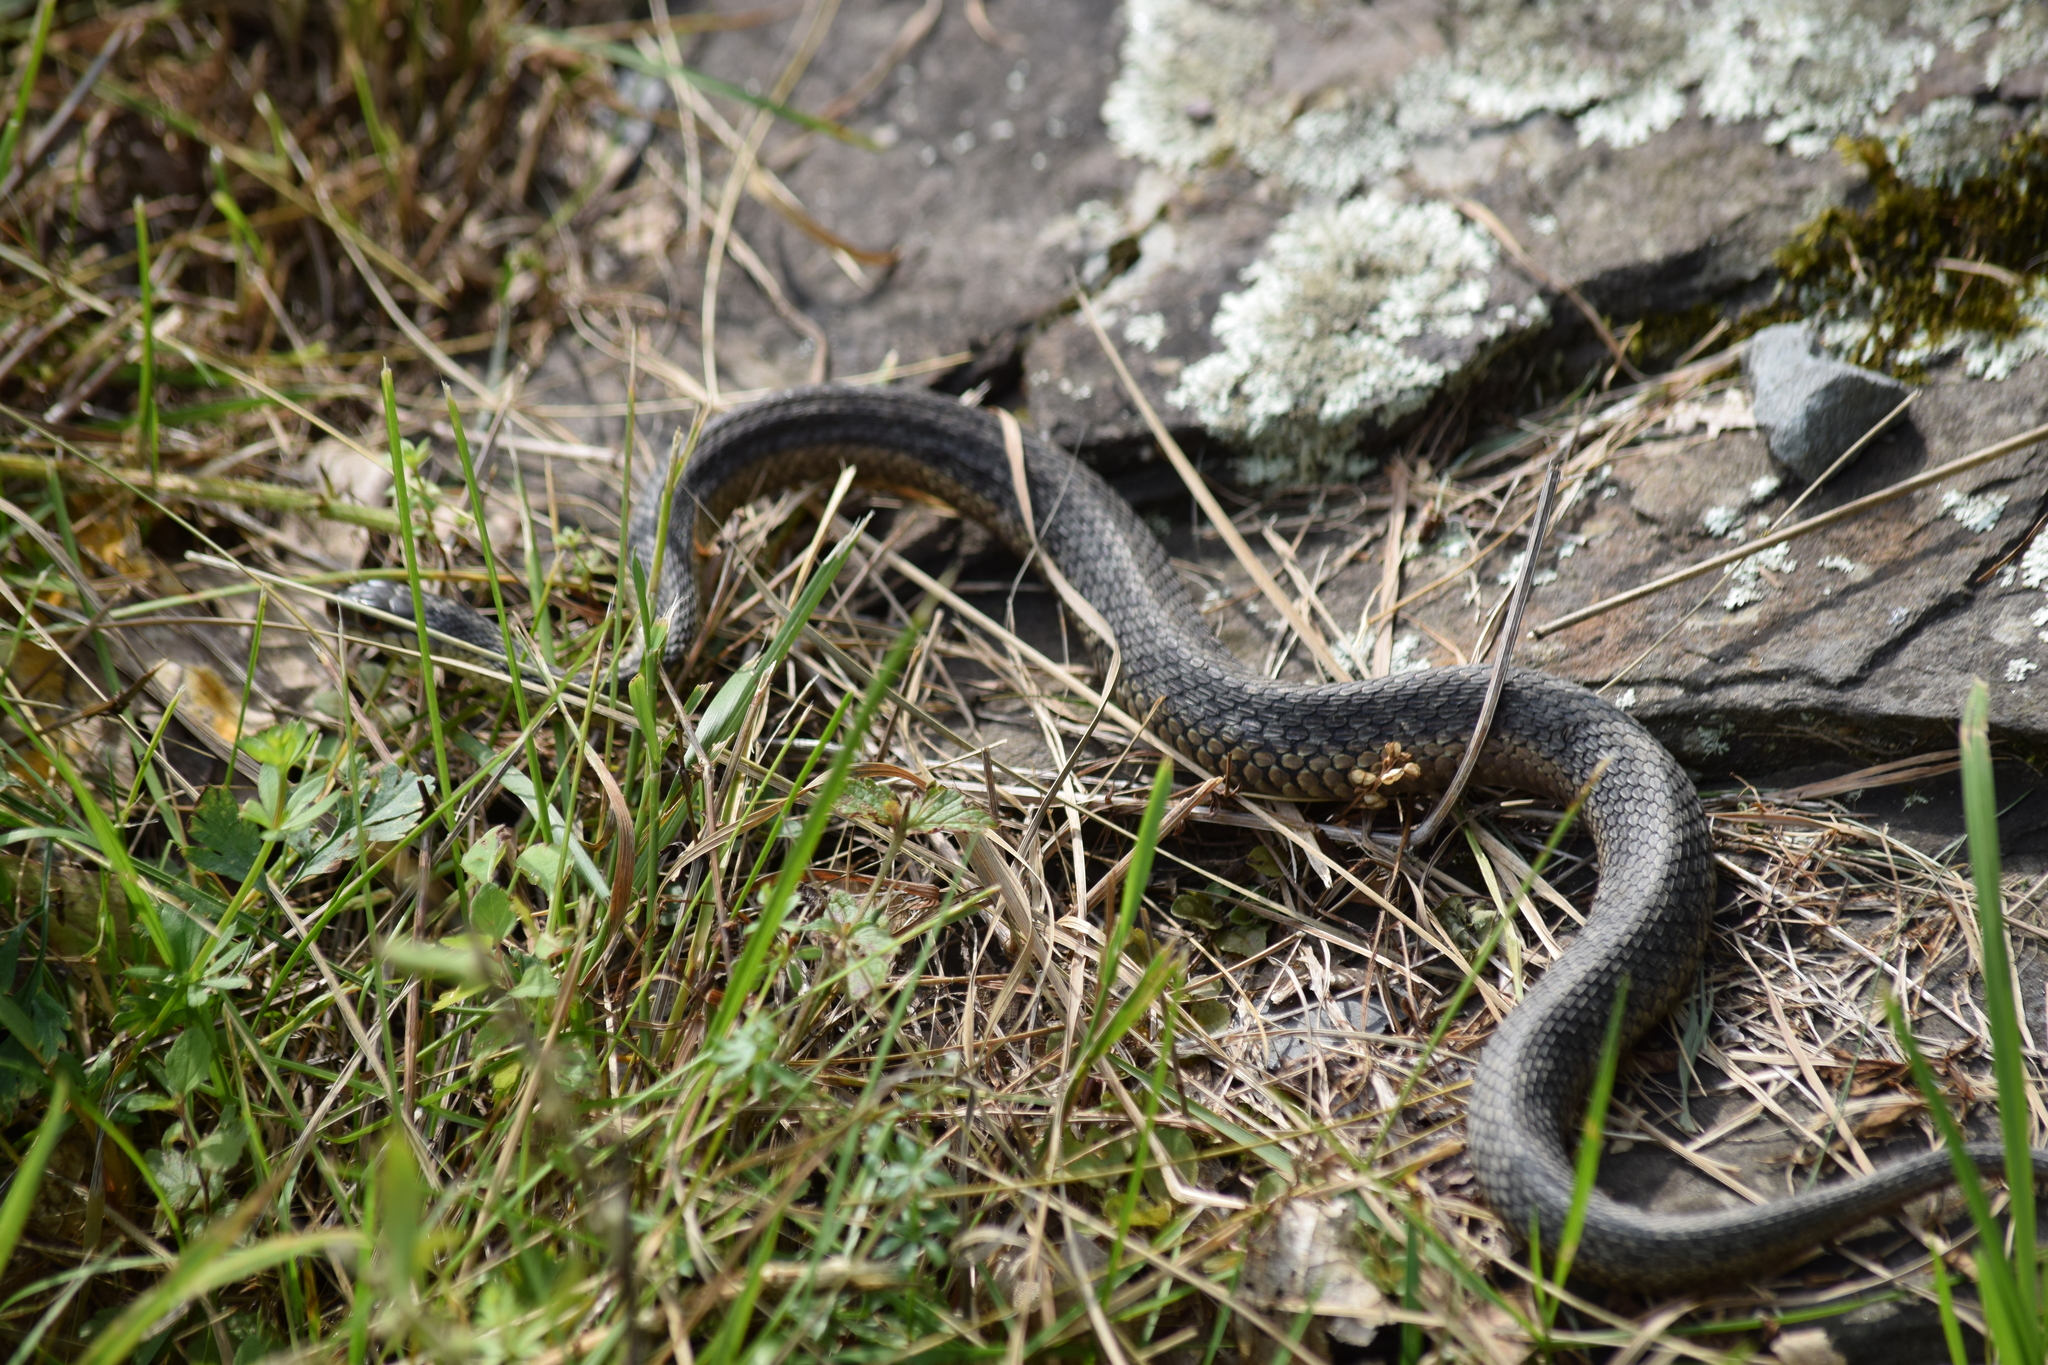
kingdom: Animalia
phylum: Chordata
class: Squamata
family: Colubridae
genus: Thamnophis
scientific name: Thamnophis sirtalis
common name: Common garter snake
